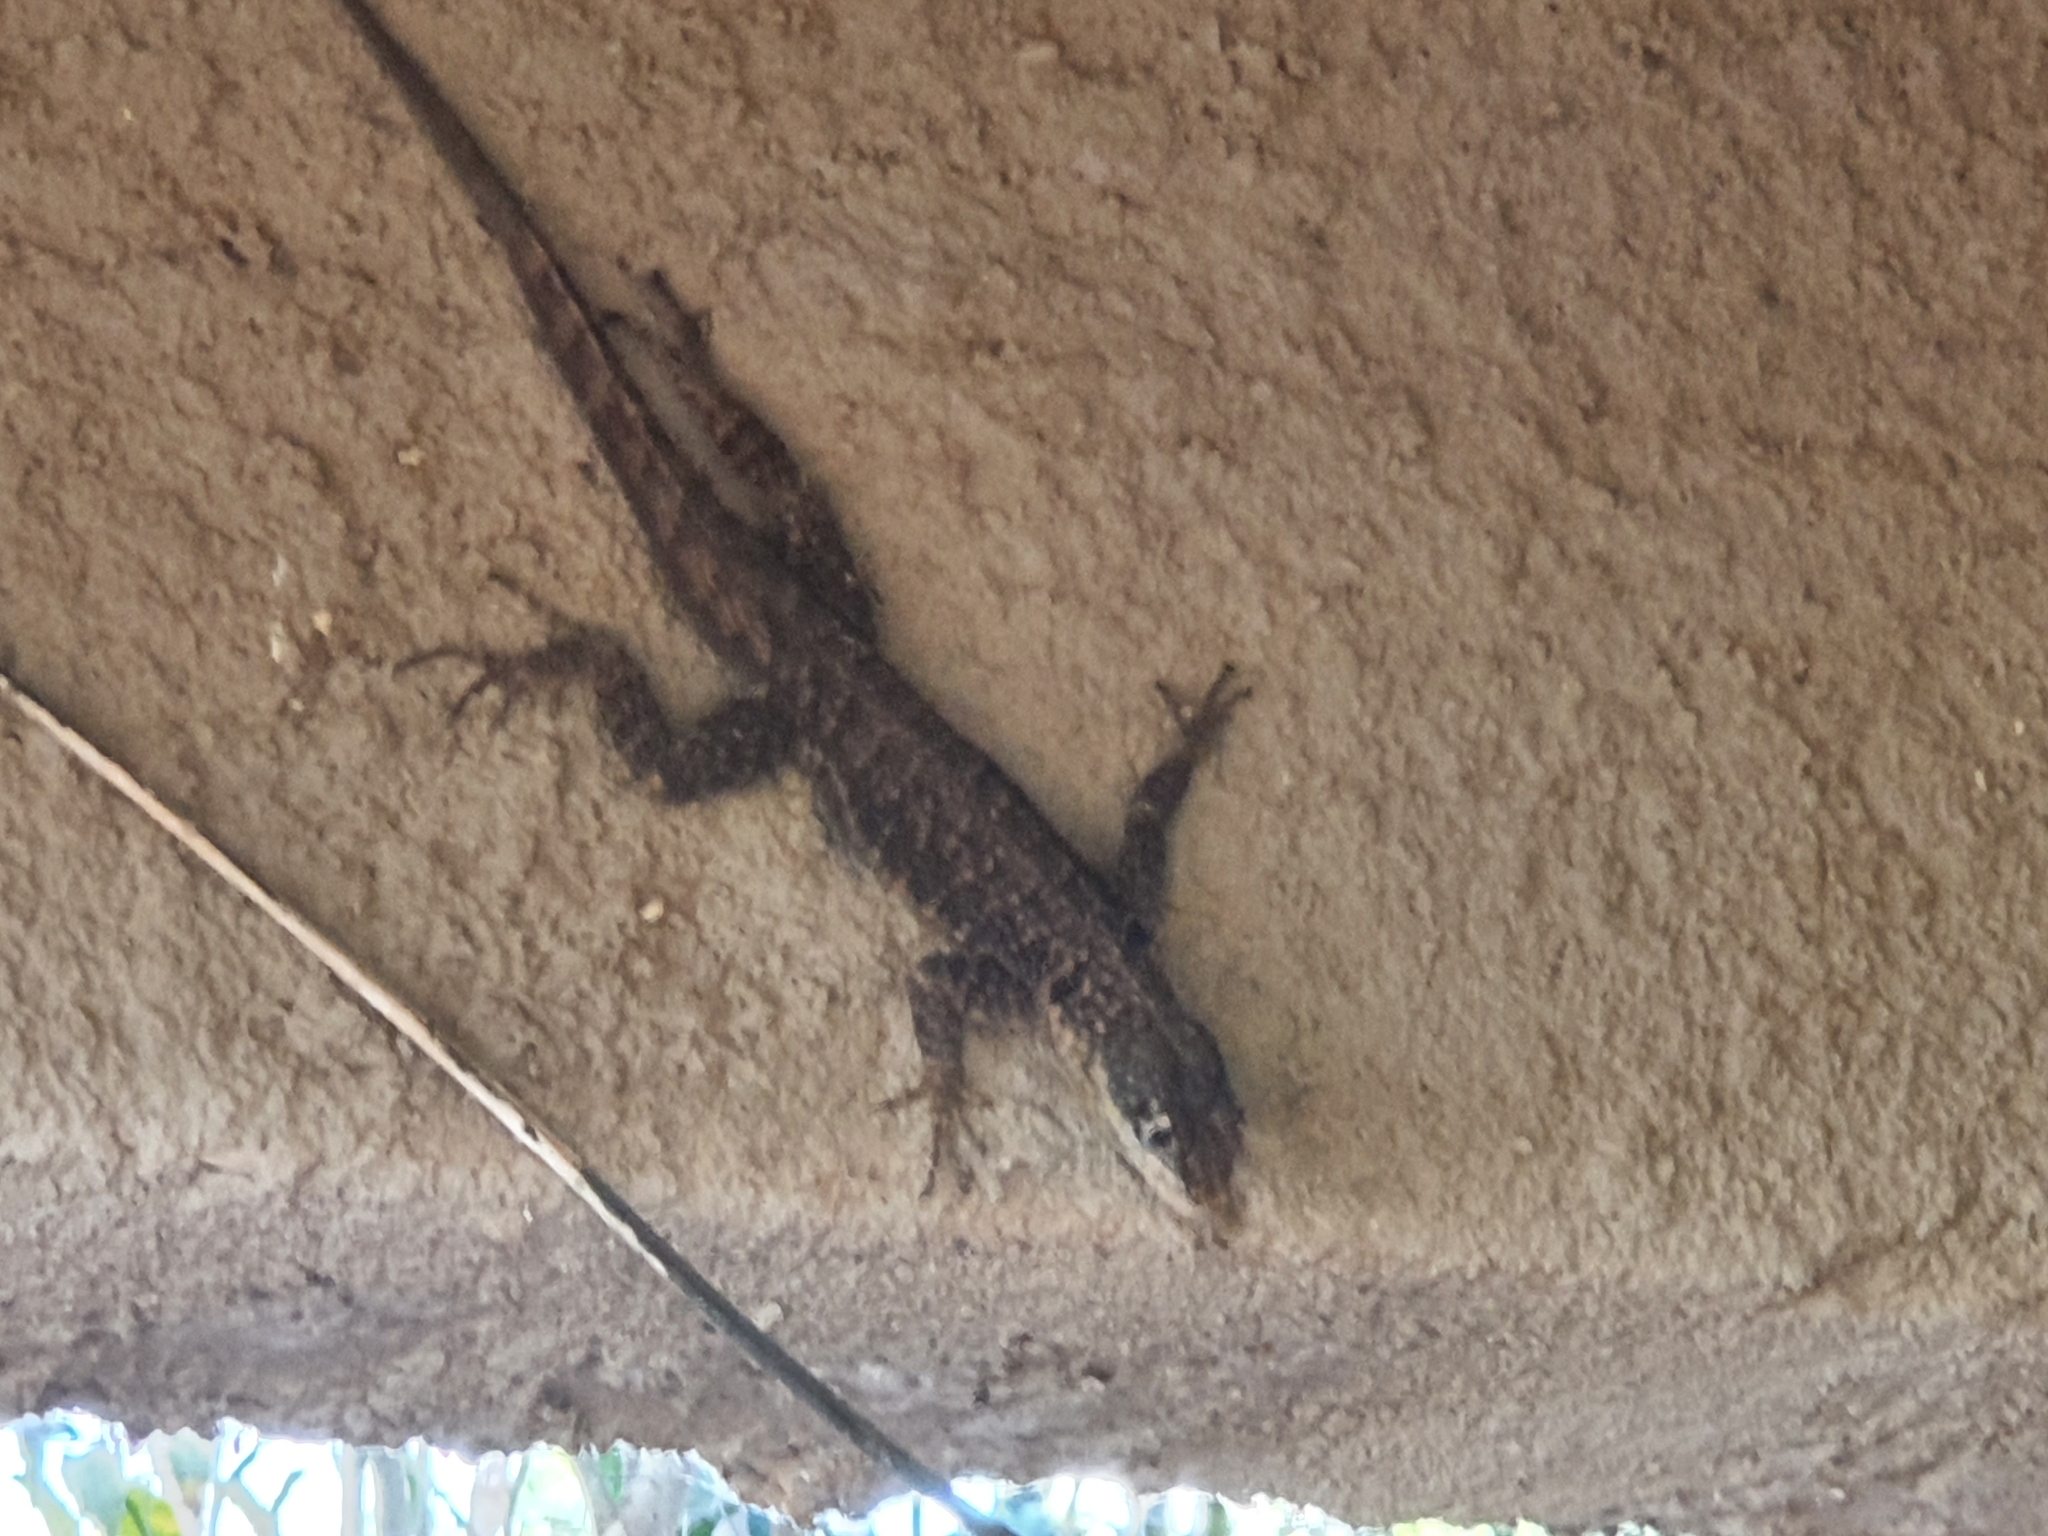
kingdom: Animalia
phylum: Chordata
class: Squamata
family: Tropiduridae
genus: Tropidurus
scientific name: Tropidurus torquatus
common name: Amazon lava lizard
